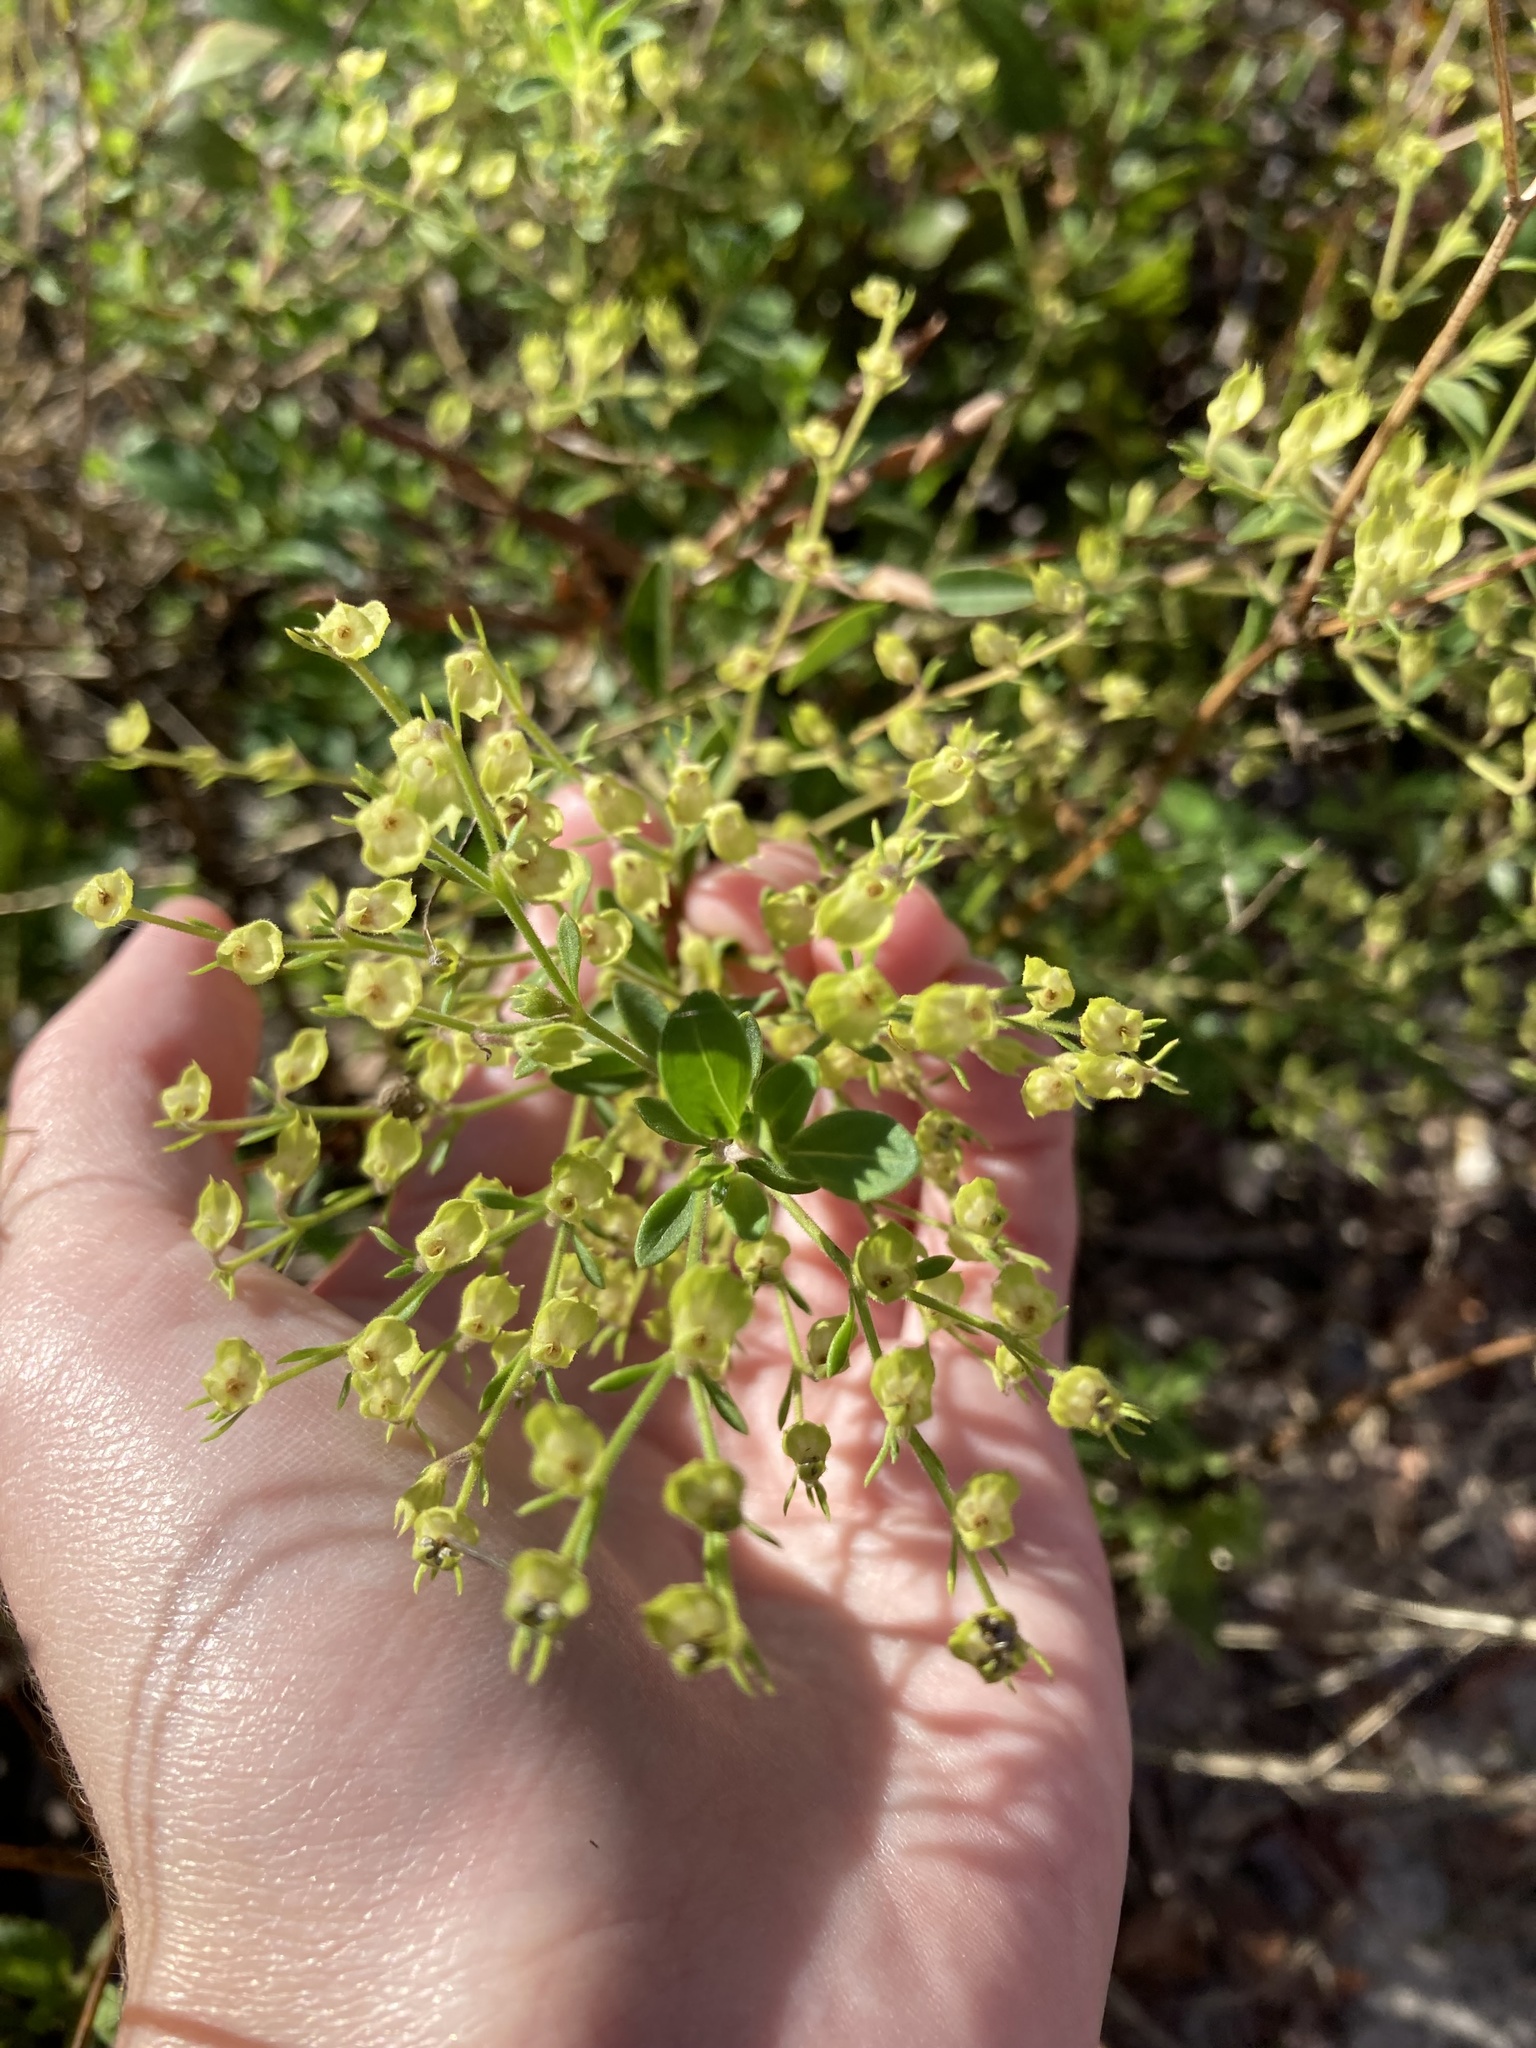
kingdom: Plantae
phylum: Tracheophyta
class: Magnoliopsida
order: Lamiales
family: Lamiaceae
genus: Trichostema
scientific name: Trichostema
